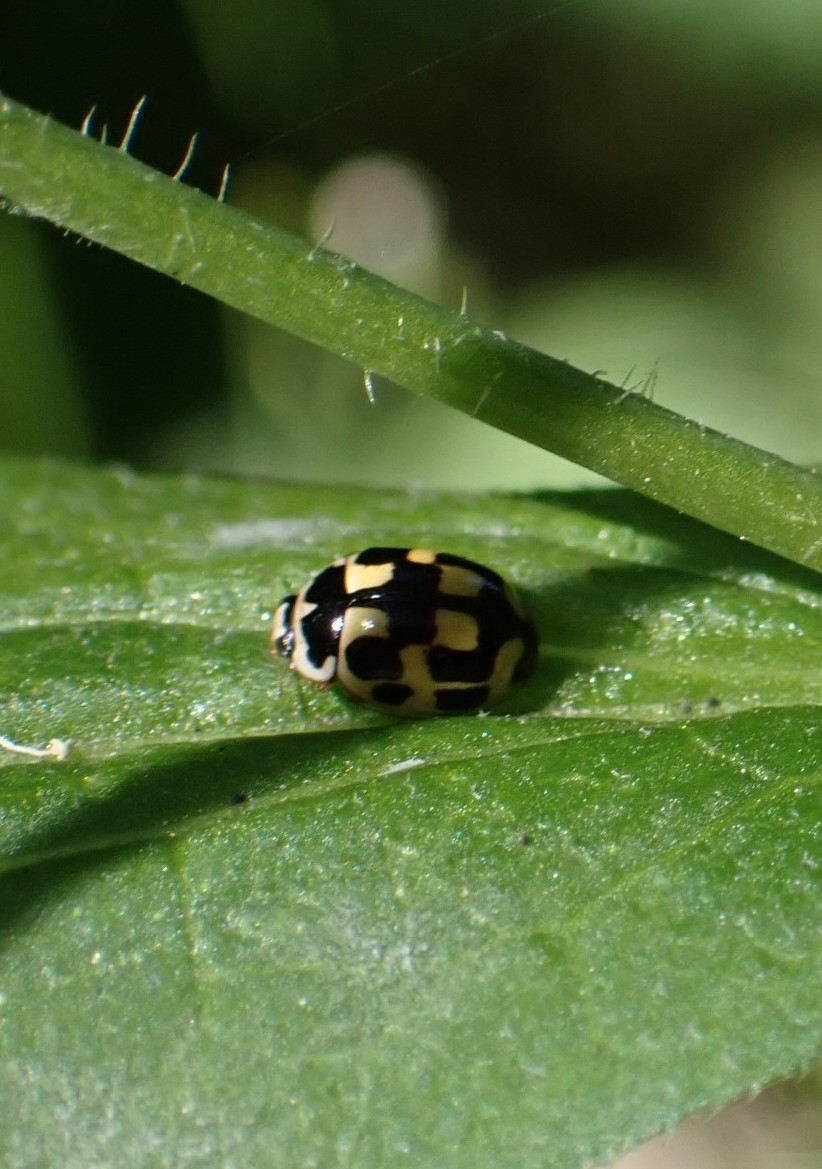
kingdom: Animalia
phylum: Arthropoda
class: Insecta
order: Coleoptera
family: Coccinellidae
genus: Propylaea
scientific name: Propylaea quatuordecimpunctata
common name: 14-spotted ladybird beetle
